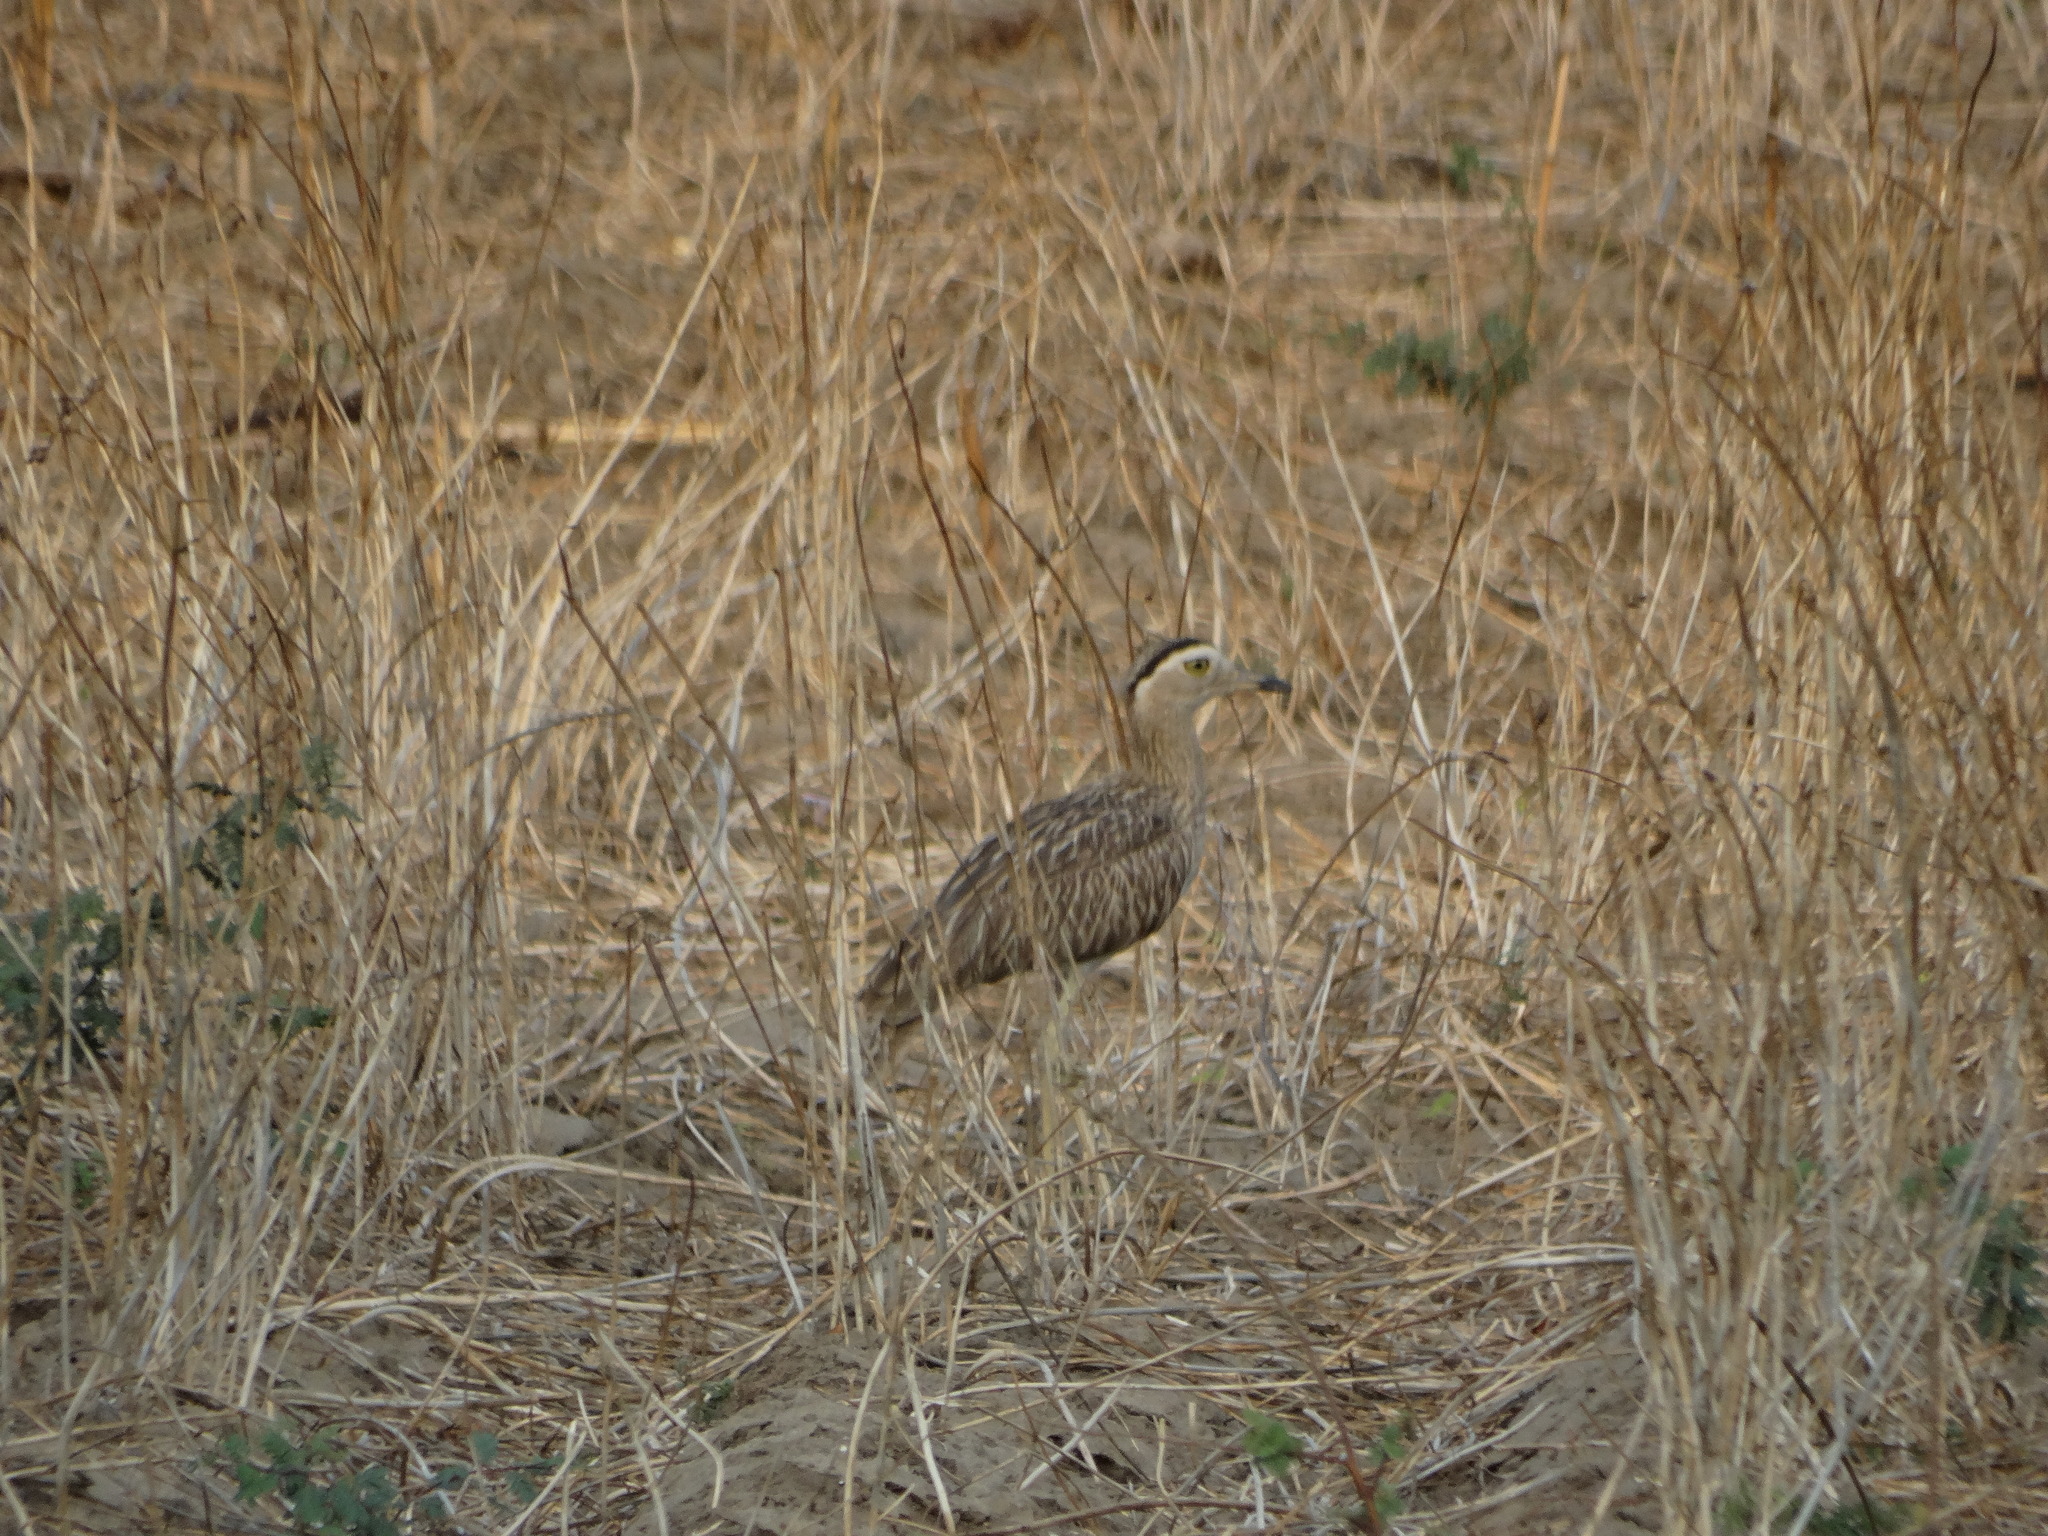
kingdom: Animalia
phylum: Chordata
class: Aves
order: Charadriiformes
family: Burhinidae
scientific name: Burhinidae
